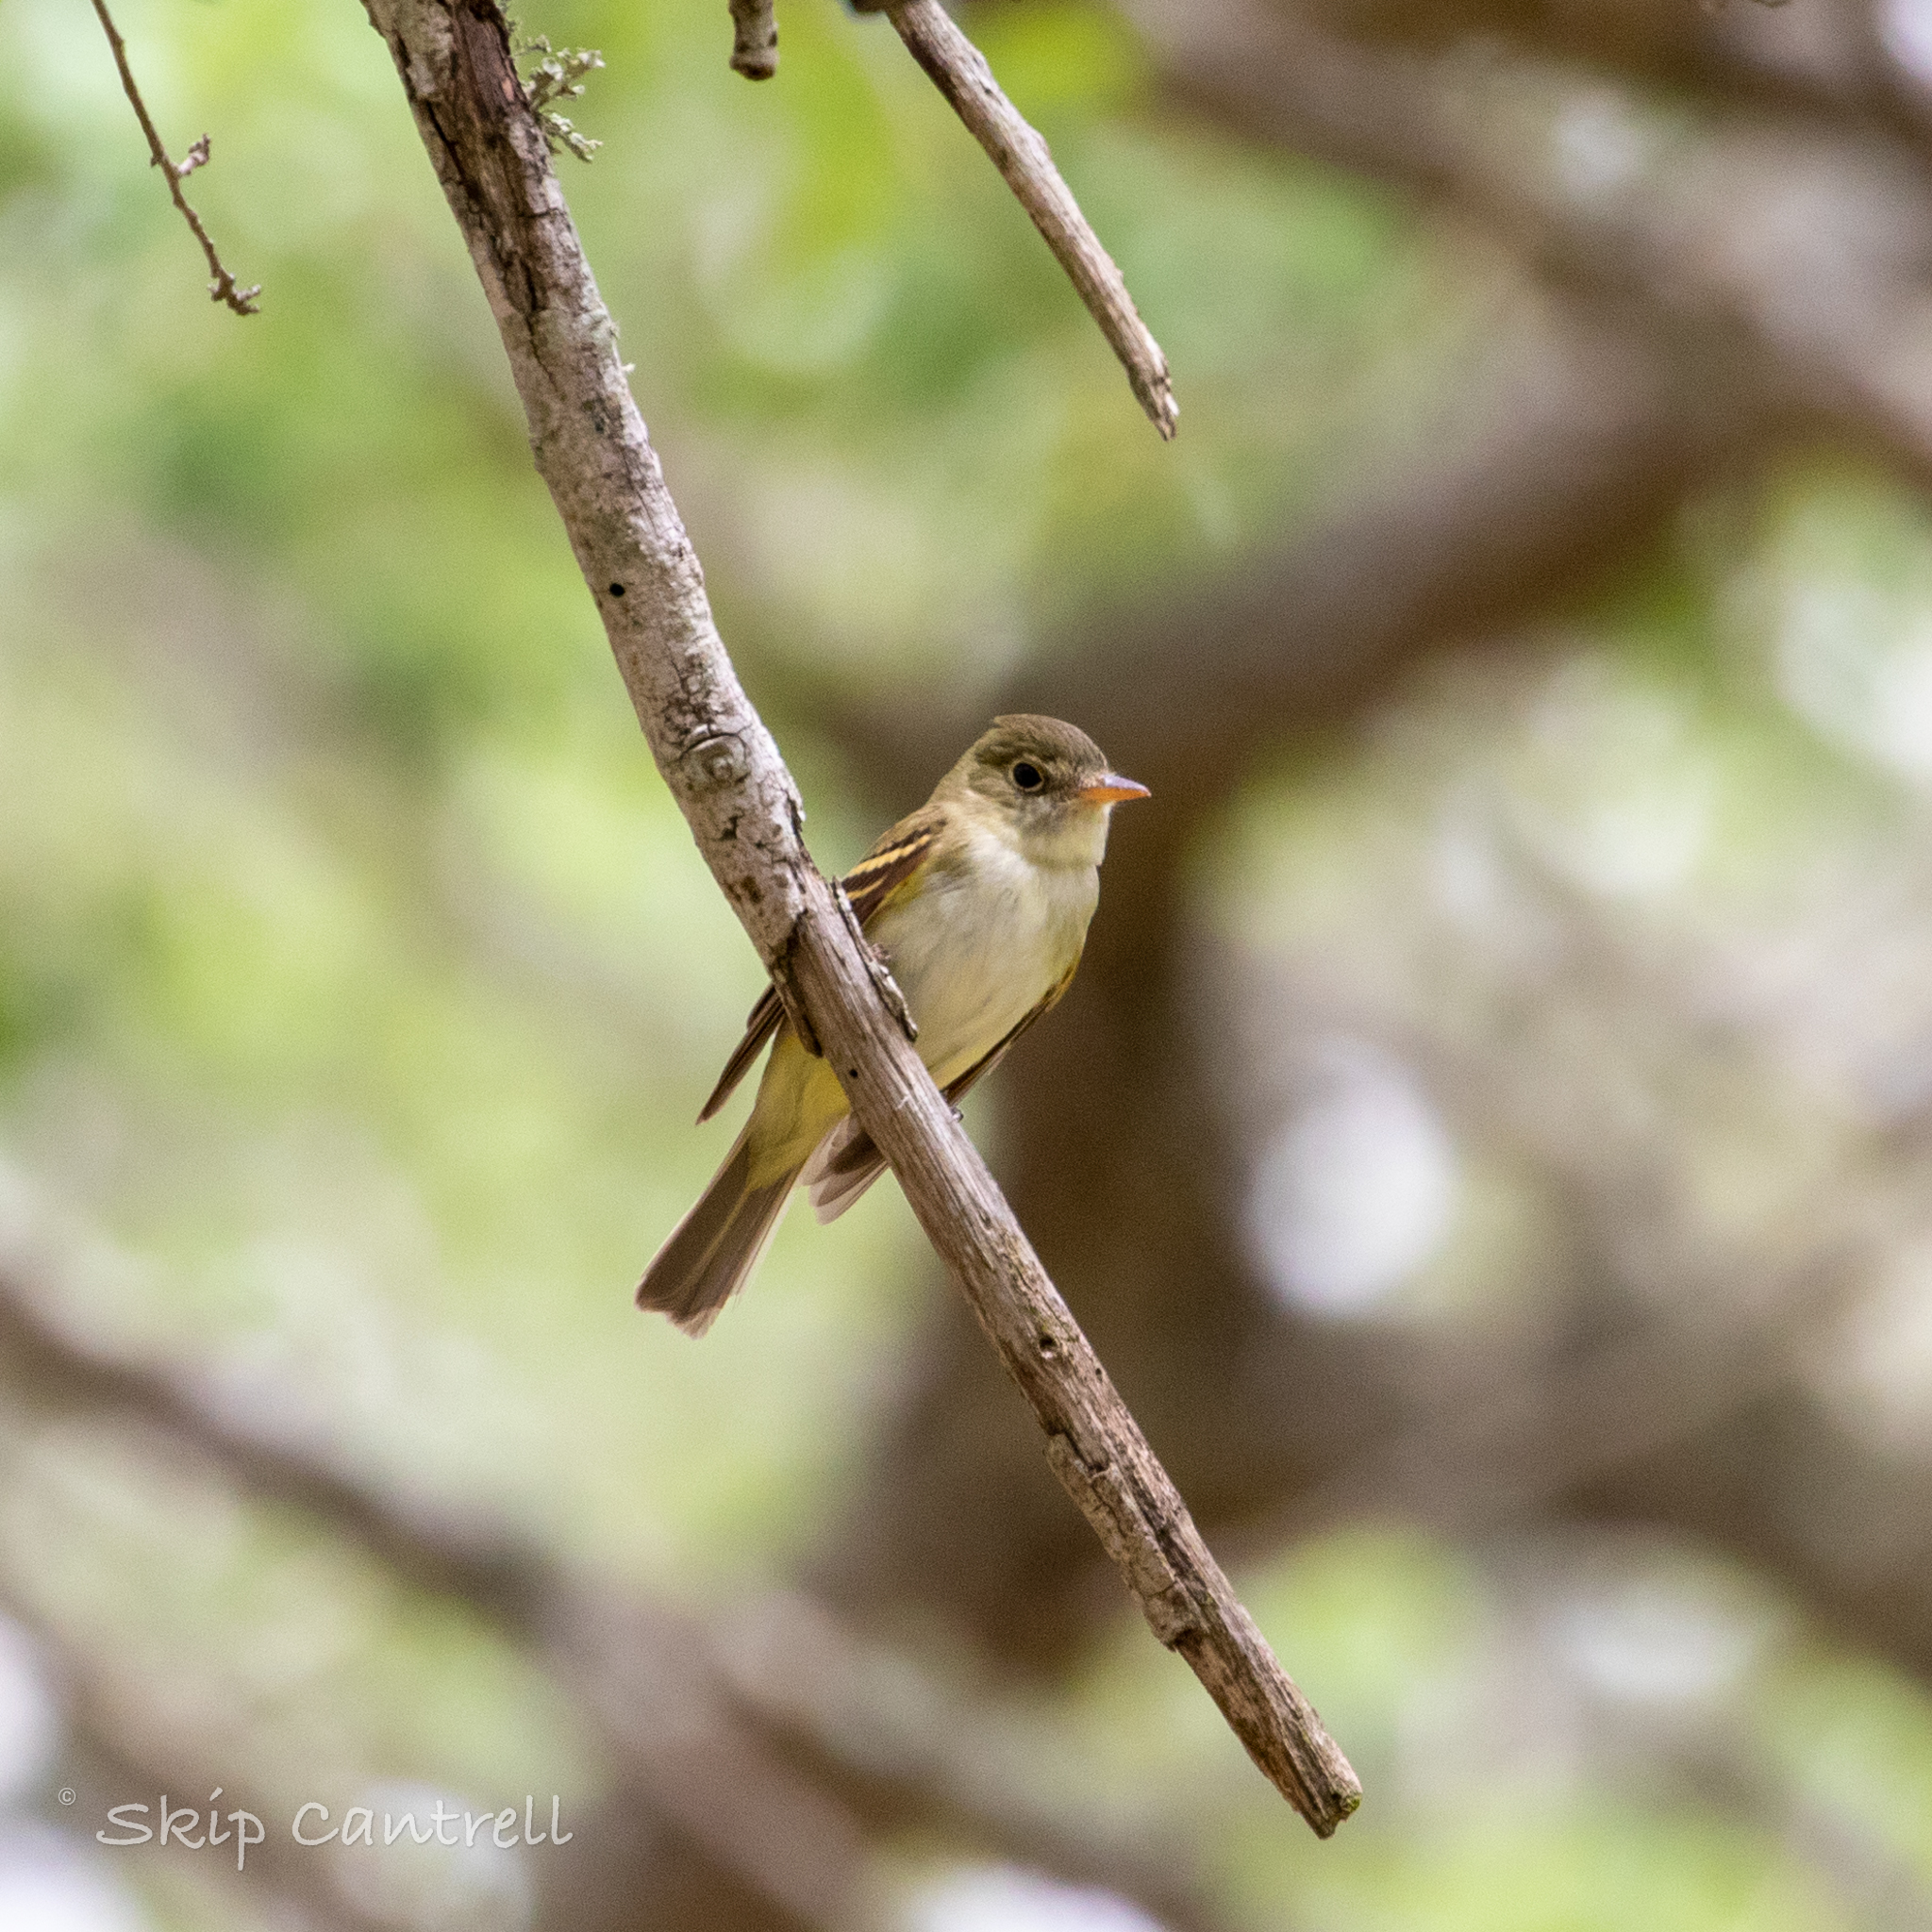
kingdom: Animalia
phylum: Chordata
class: Aves
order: Passeriformes
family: Tyrannidae
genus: Empidonax
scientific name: Empidonax virescens
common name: Acadian flycatcher
